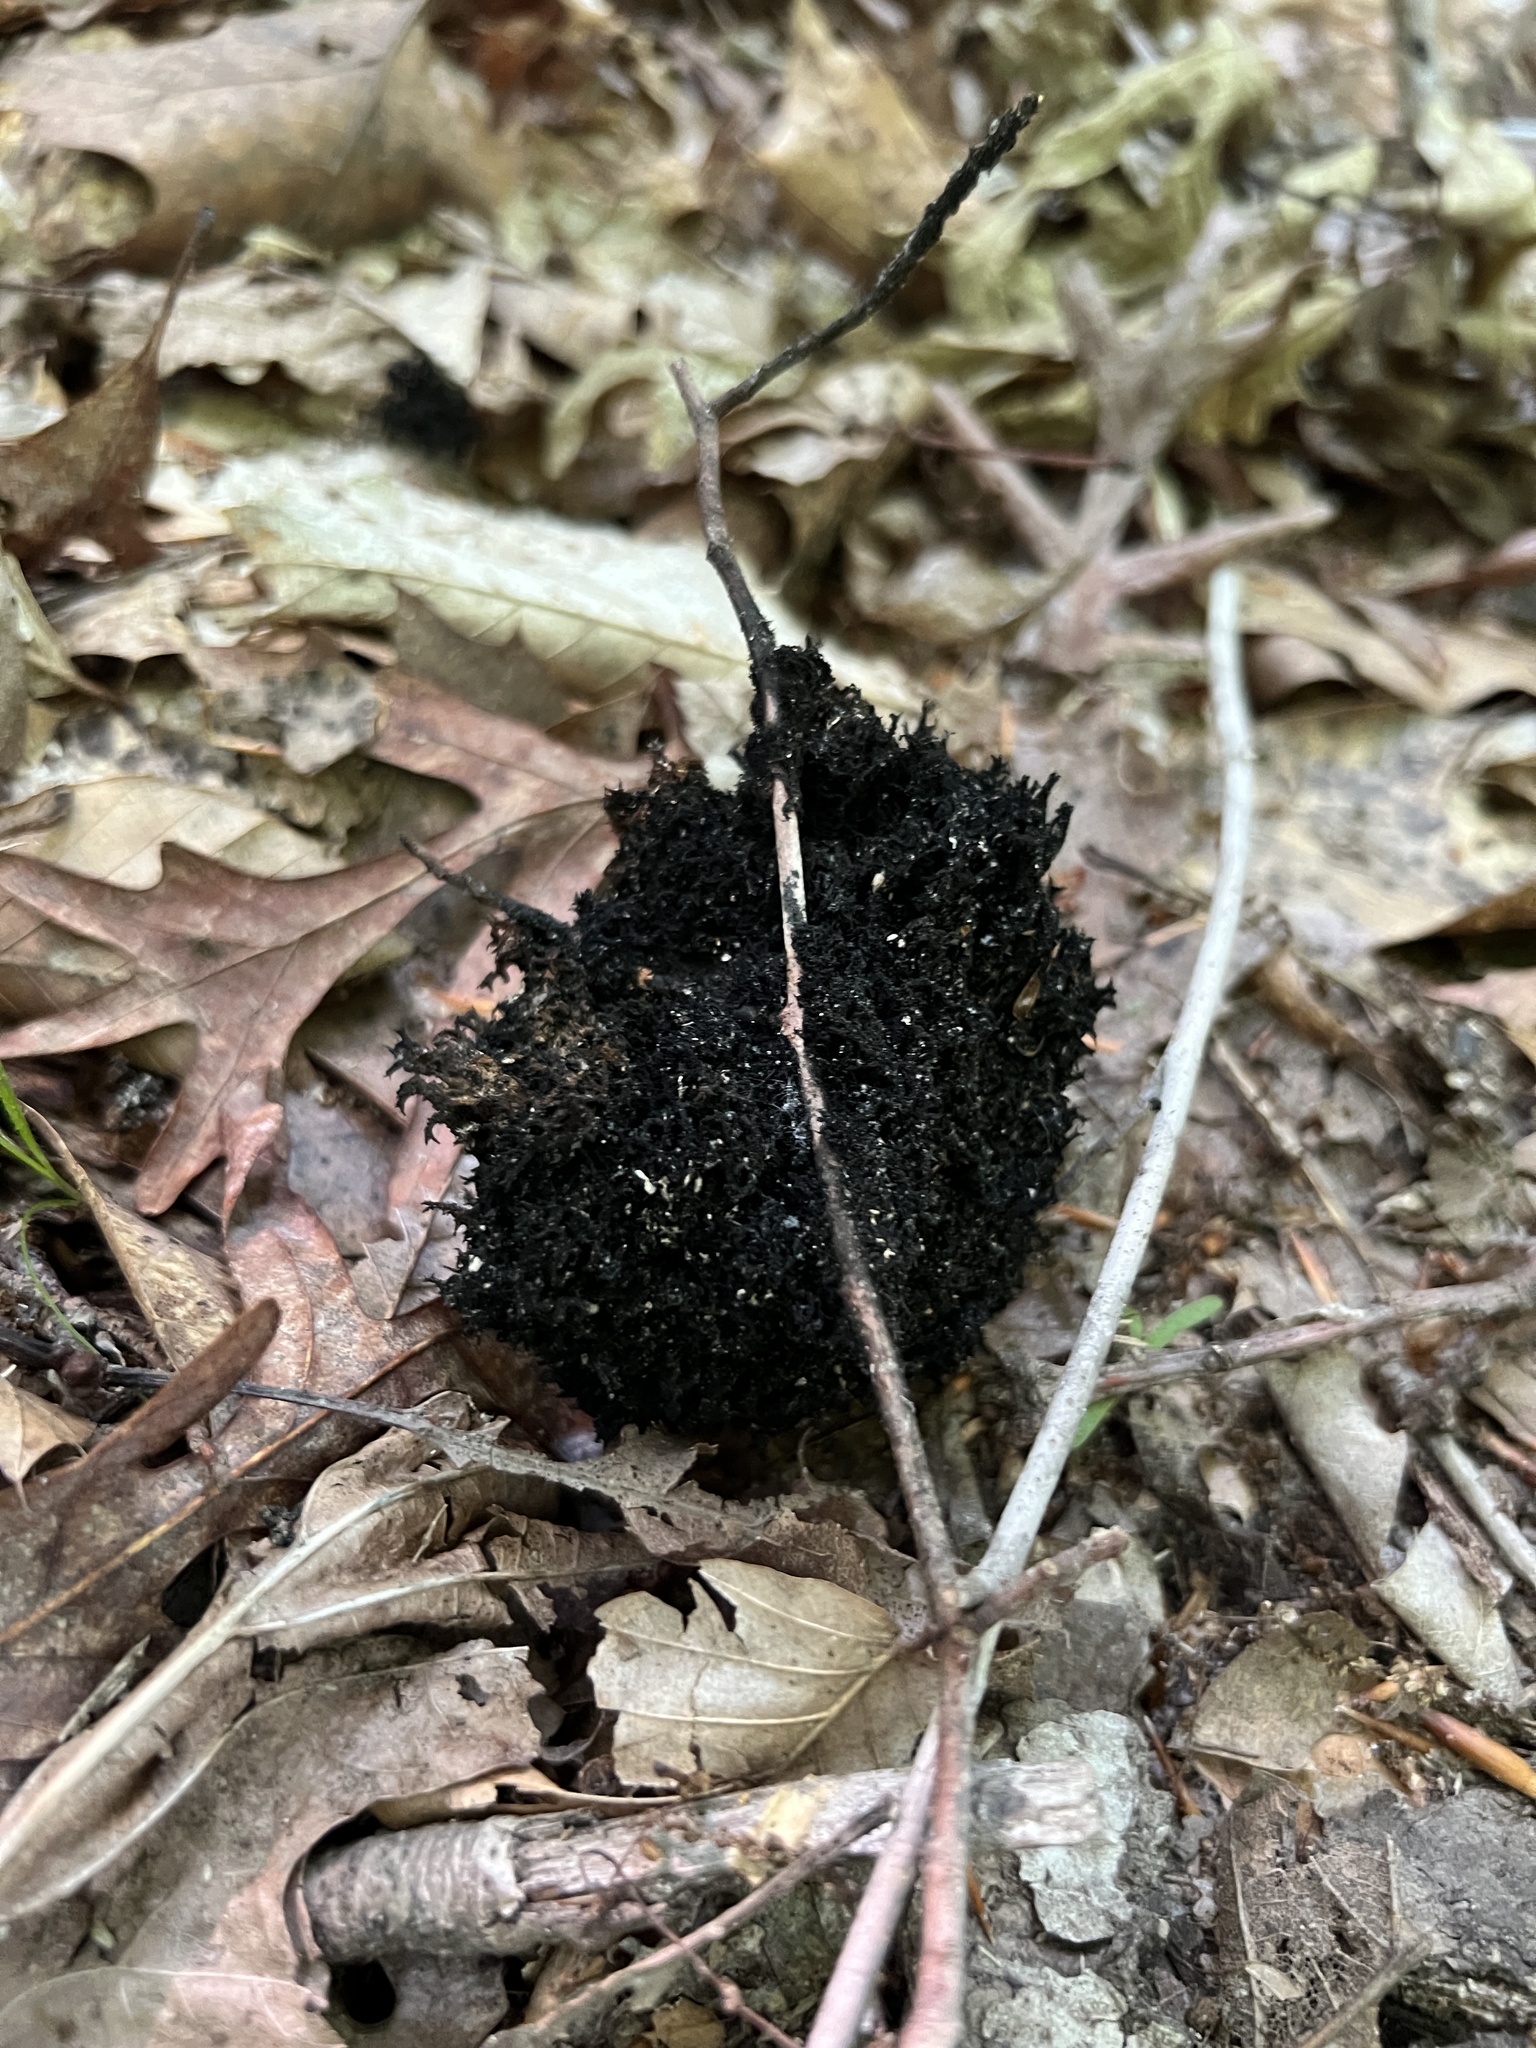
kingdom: Fungi
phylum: Ascomycota
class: Dothideomycetes
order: Capnodiales
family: Capnodiaceae
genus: Scorias
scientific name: Scorias spongiosa
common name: Black sooty mold
